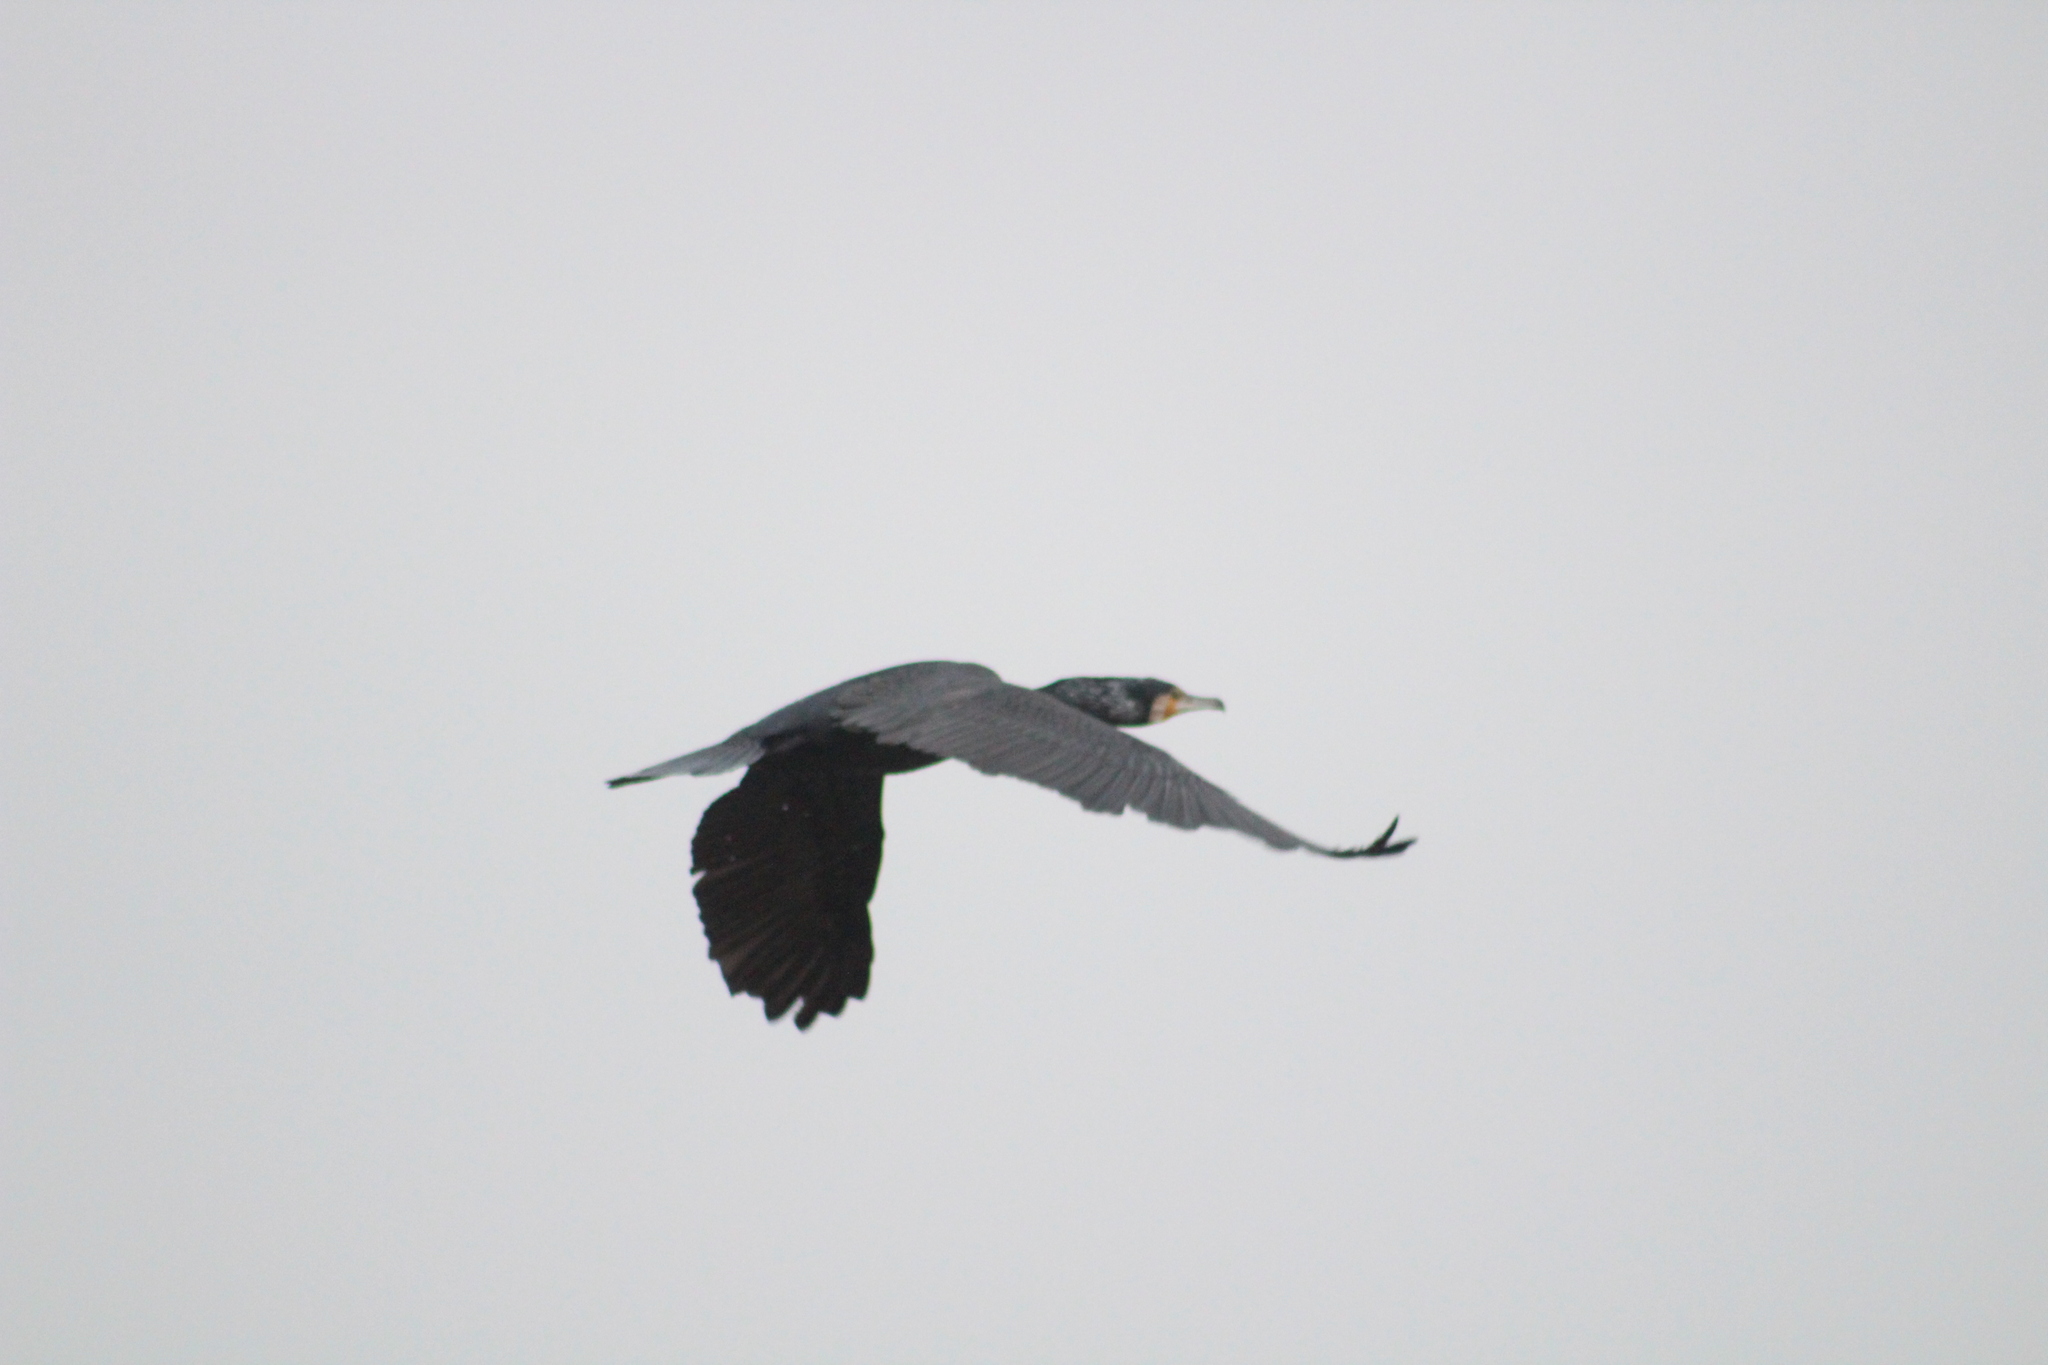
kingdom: Animalia
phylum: Chordata
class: Aves
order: Suliformes
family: Phalacrocoracidae
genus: Phalacrocorax
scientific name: Phalacrocorax carbo
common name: Great cormorant
